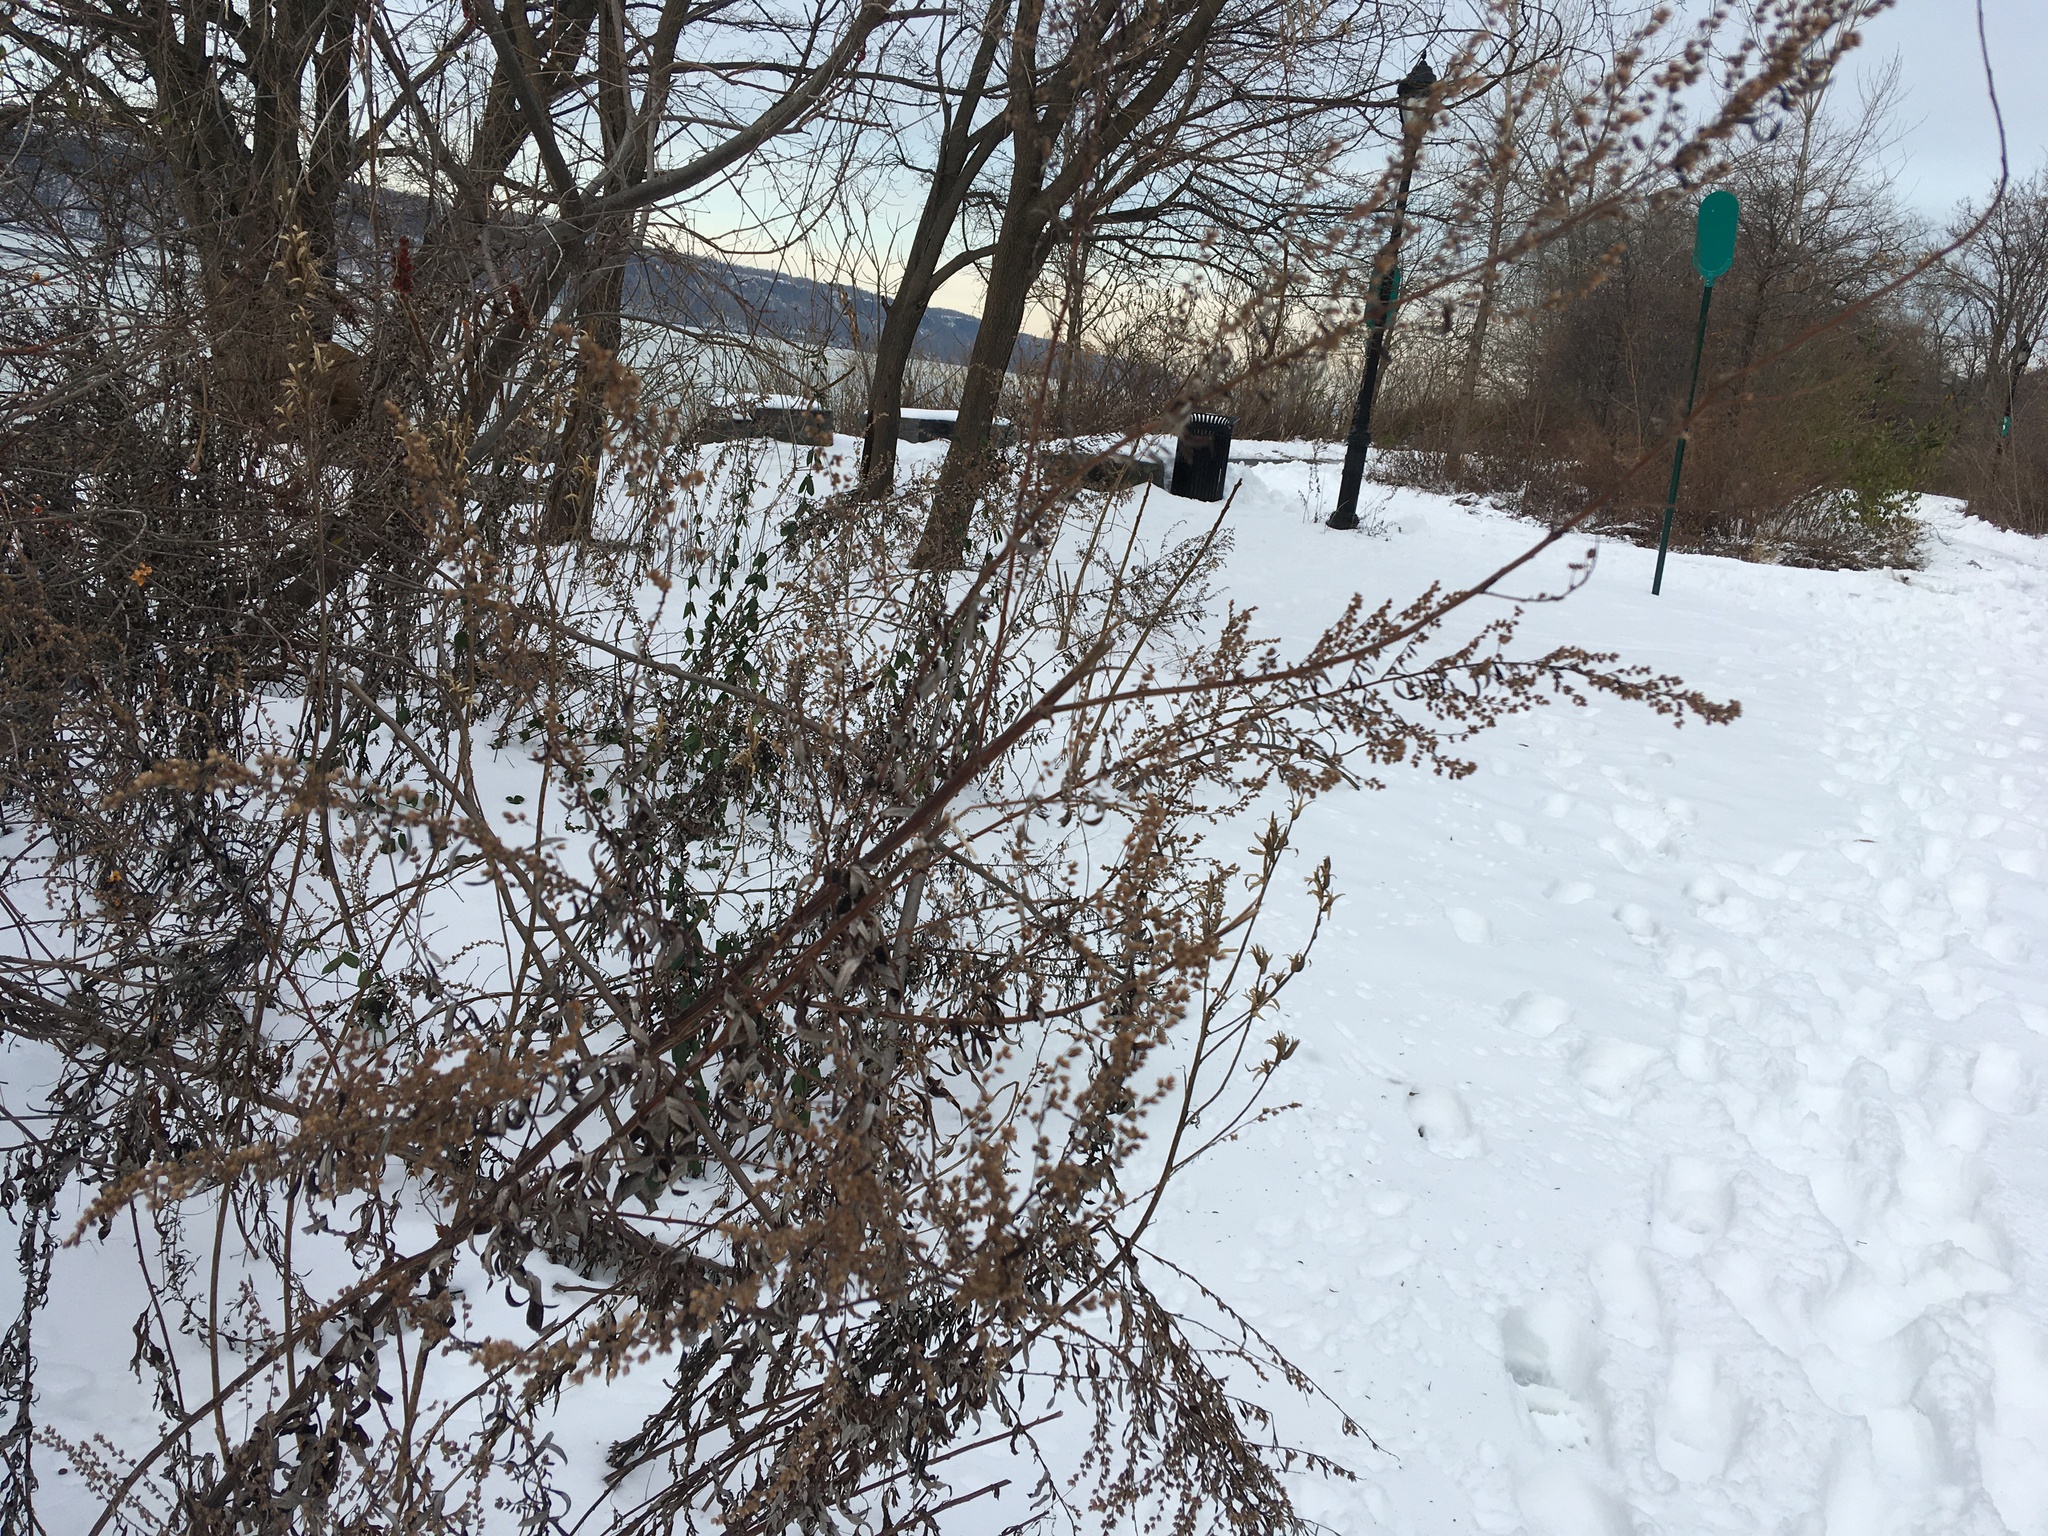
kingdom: Plantae
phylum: Tracheophyta
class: Magnoliopsida
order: Asterales
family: Asteraceae
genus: Artemisia
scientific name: Artemisia vulgaris
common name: Mugwort
